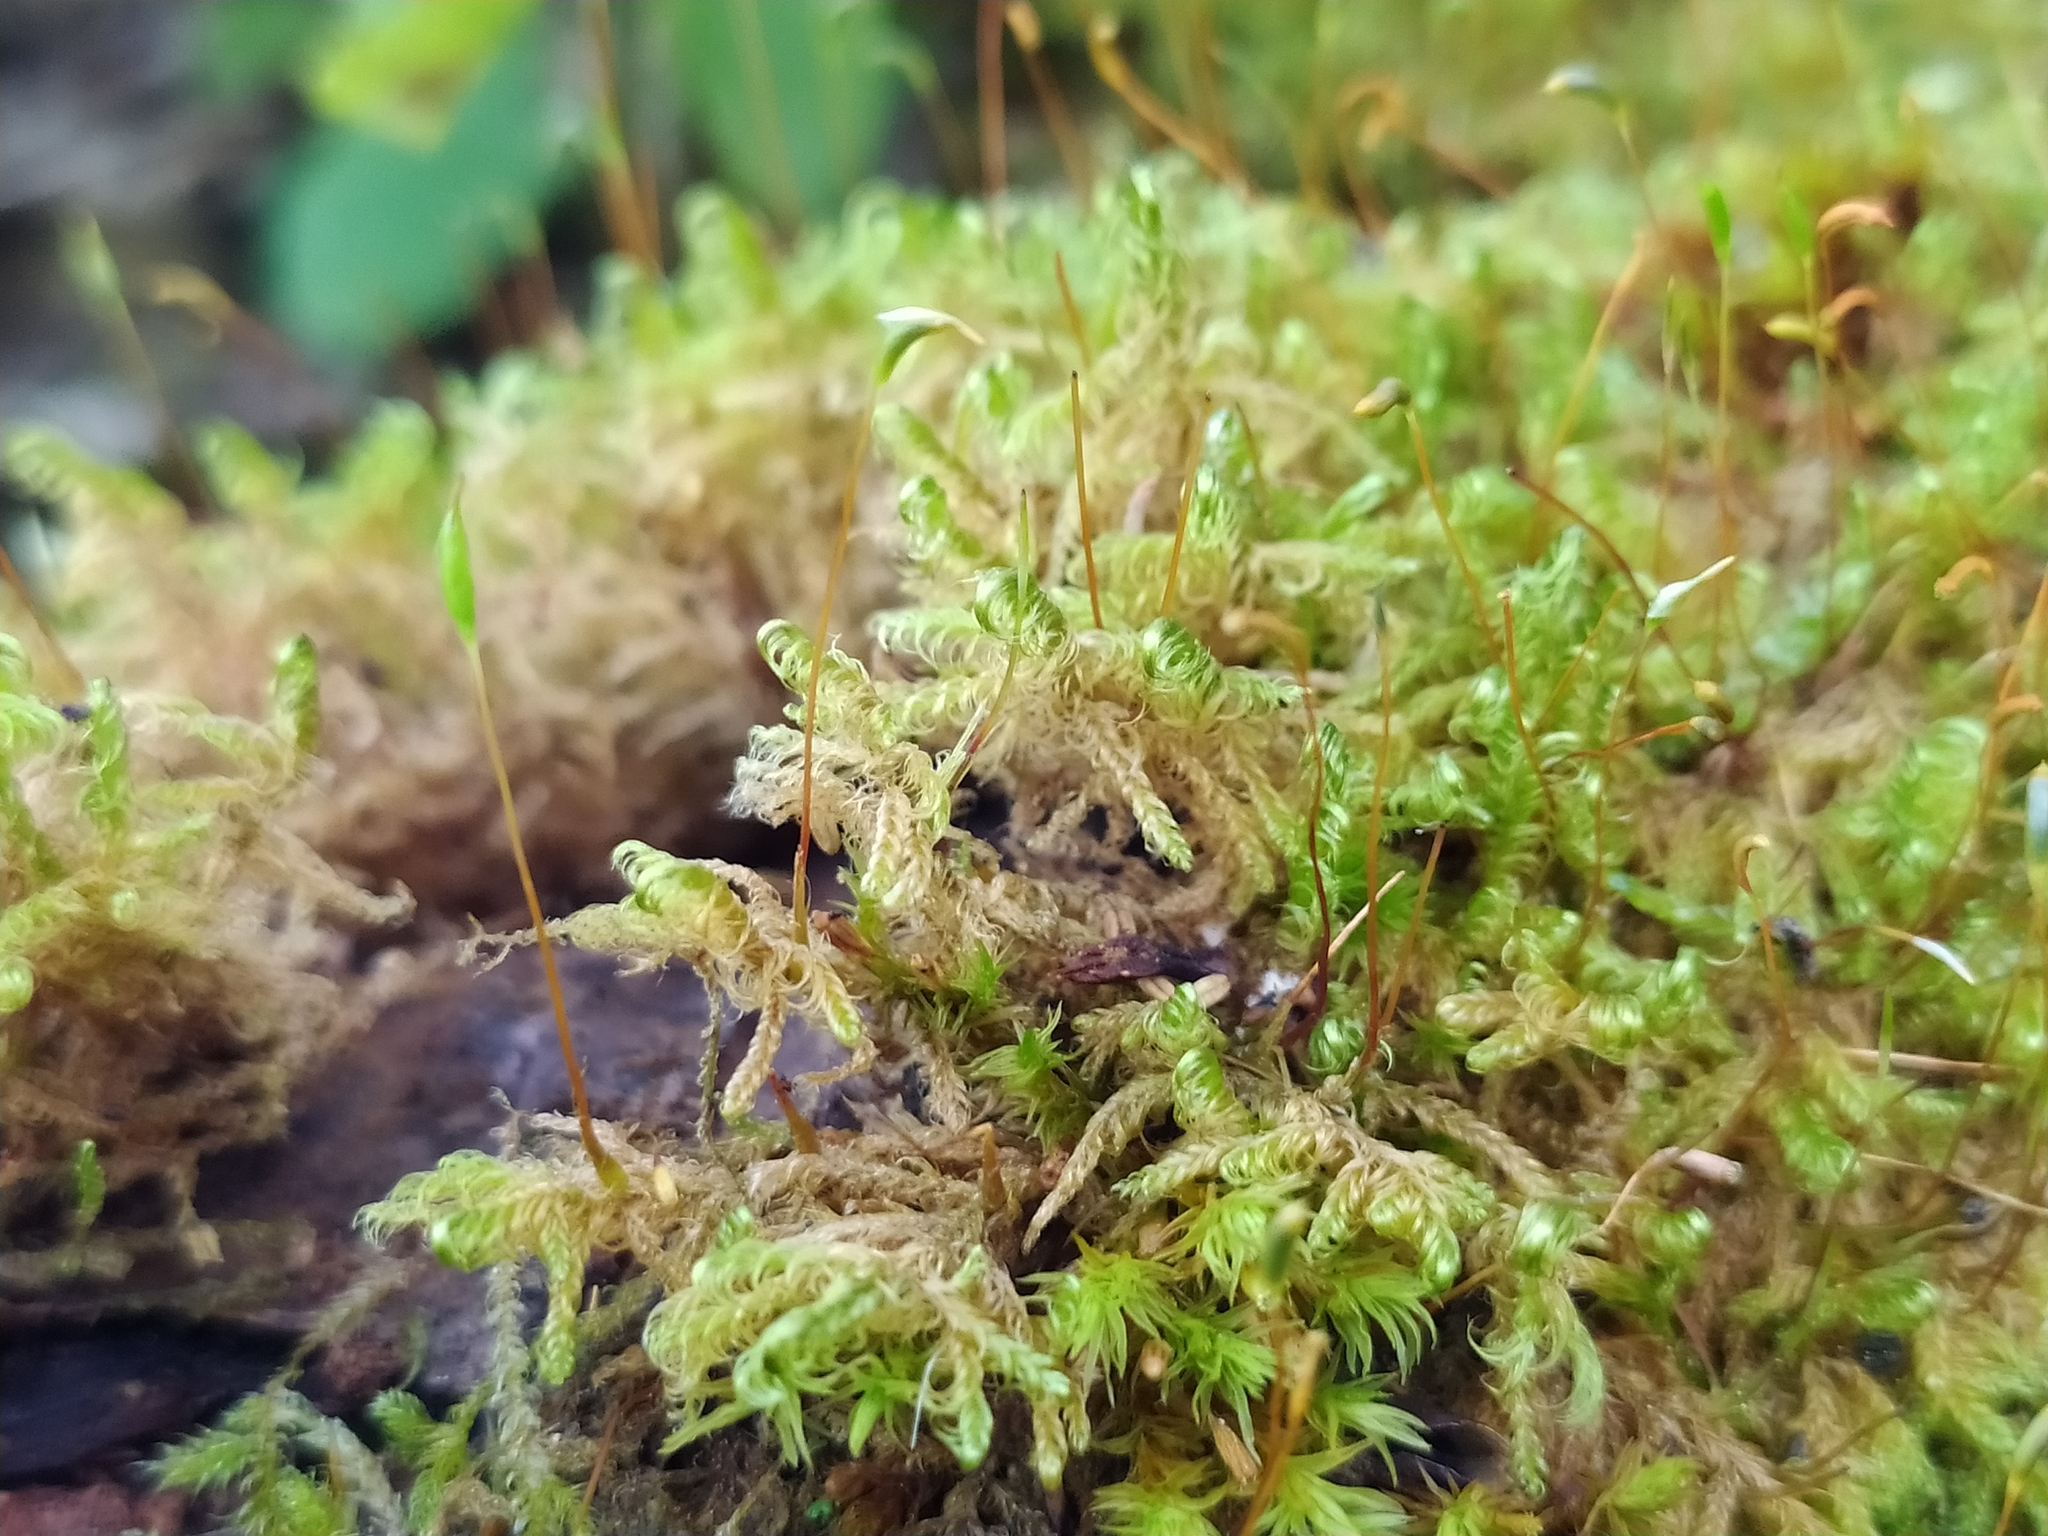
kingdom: Plantae
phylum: Bryophyta
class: Bryopsida
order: Hypnales
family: Scorpidiaceae
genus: Sanionia
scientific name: Sanionia uncinata
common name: Sickle moss
